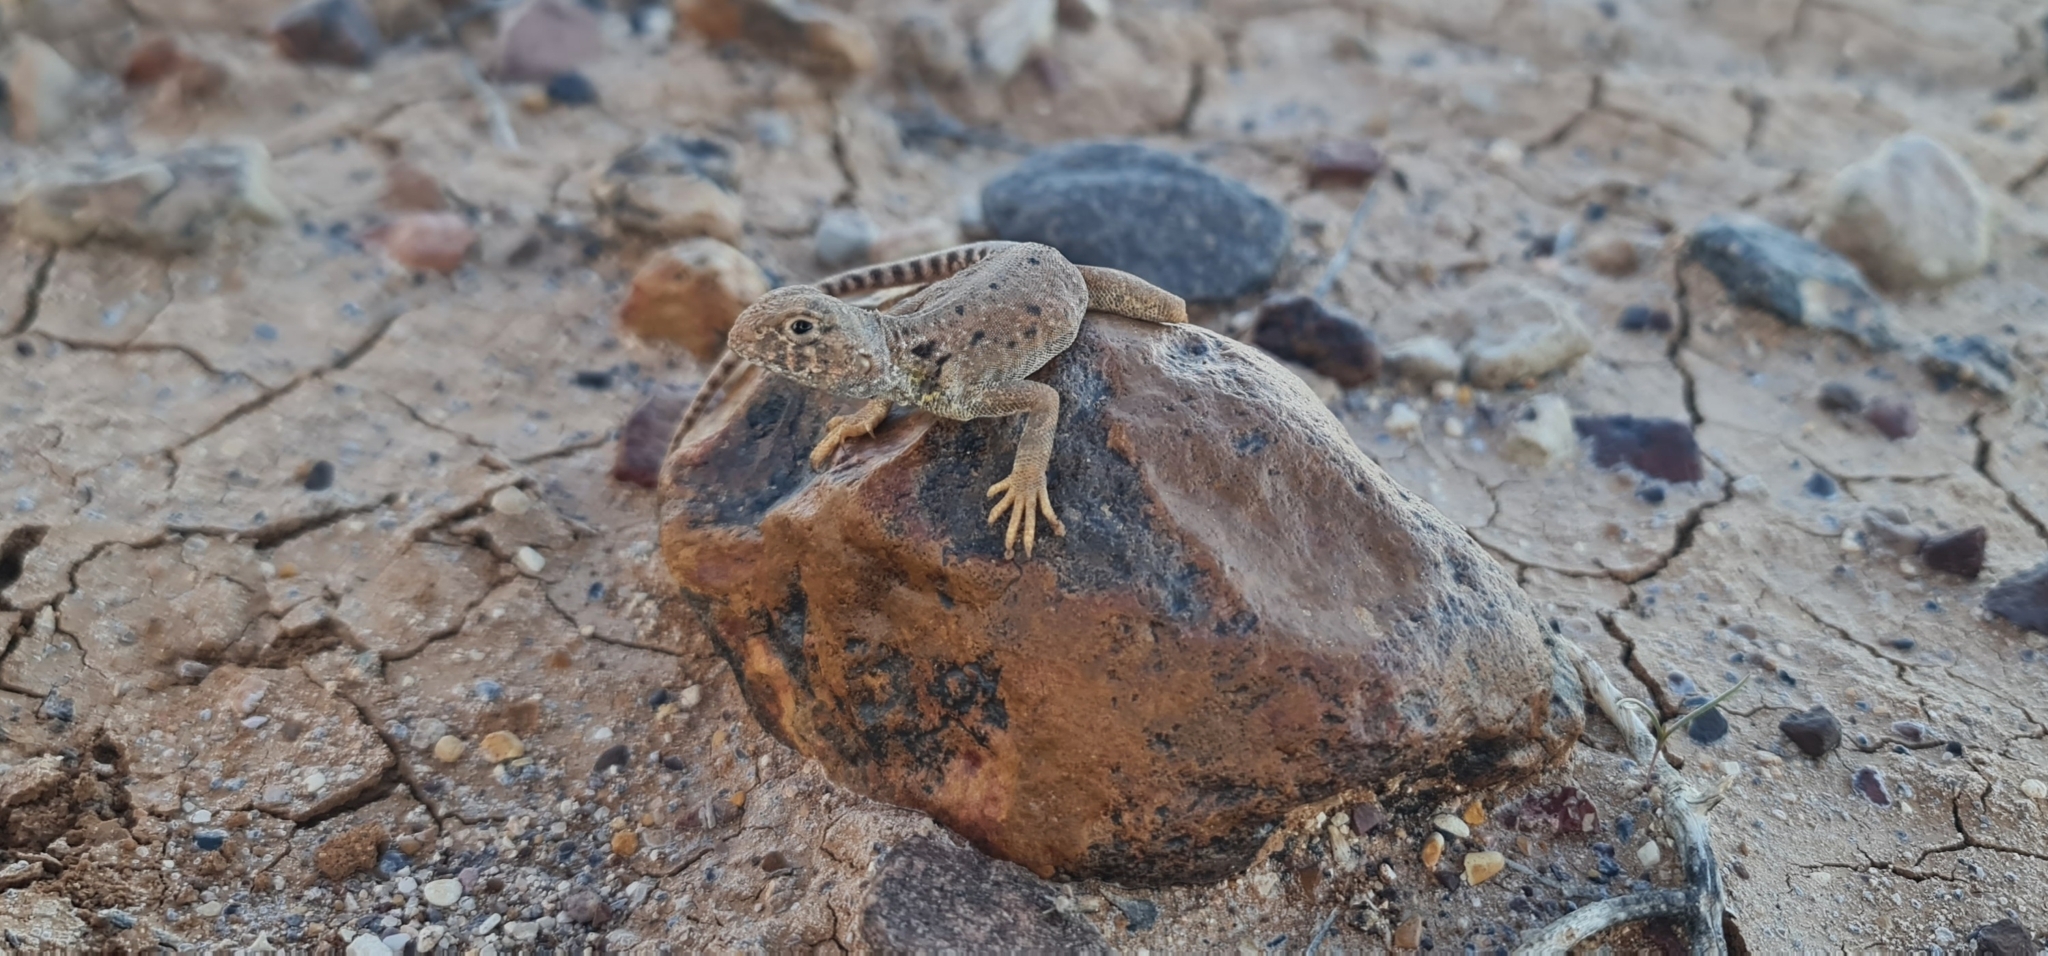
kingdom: Animalia
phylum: Chordata
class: Squamata
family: Agamidae
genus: Ctenophorus
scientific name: Ctenophorus gibba
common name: Bulldust ground-dragon
